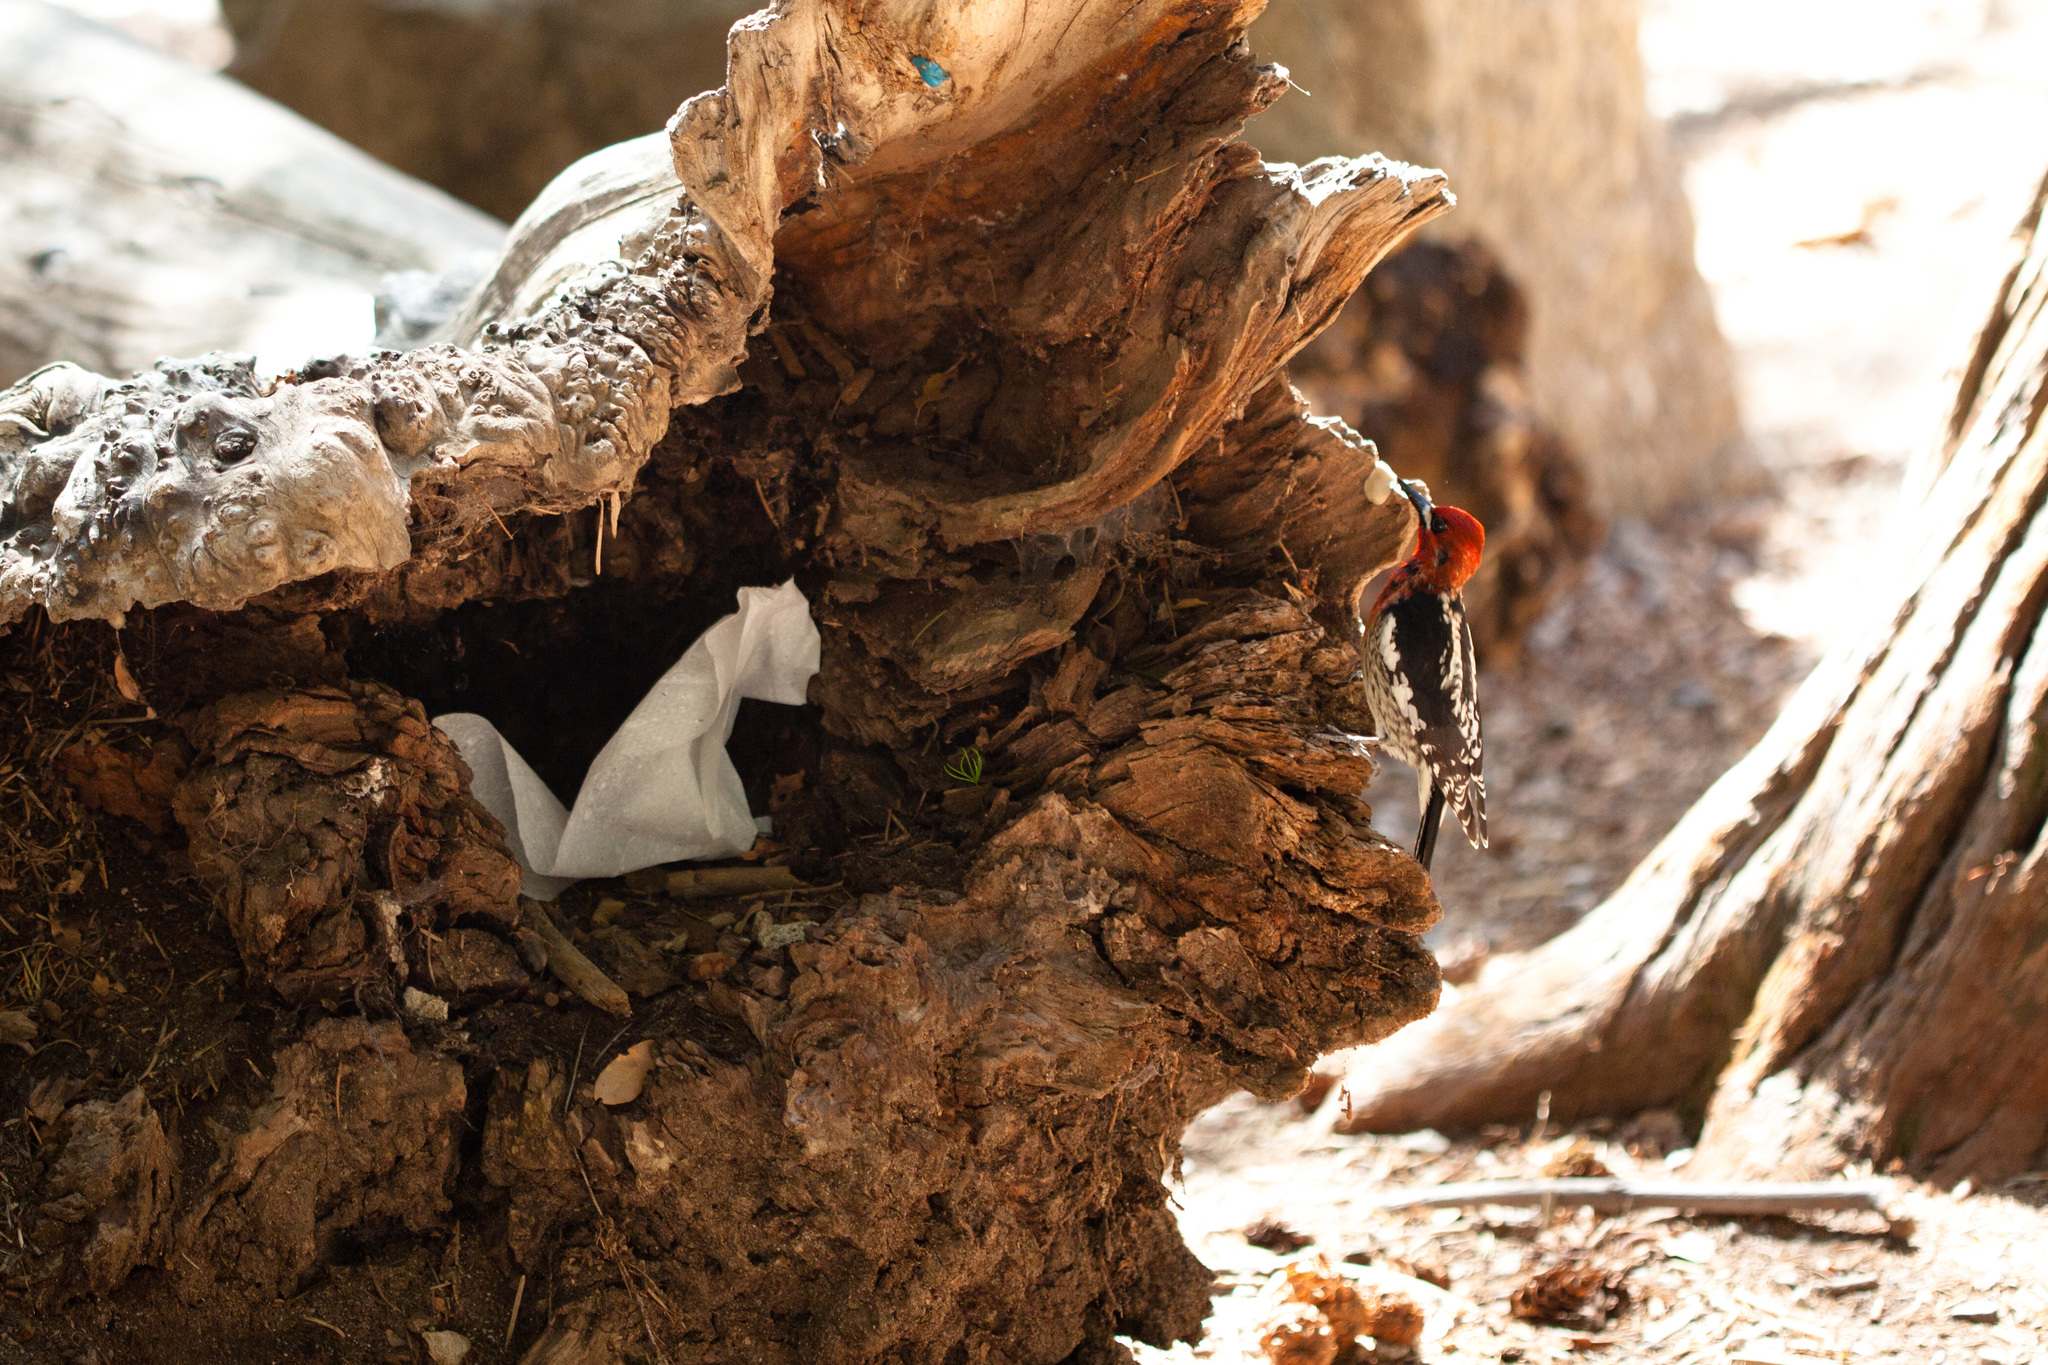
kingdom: Animalia
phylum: Chordata
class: Aves
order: Piciformes
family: Picidae
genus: Sphyrapicus
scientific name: Sphyrapicus ruber
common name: Red-breasted sapsucker
